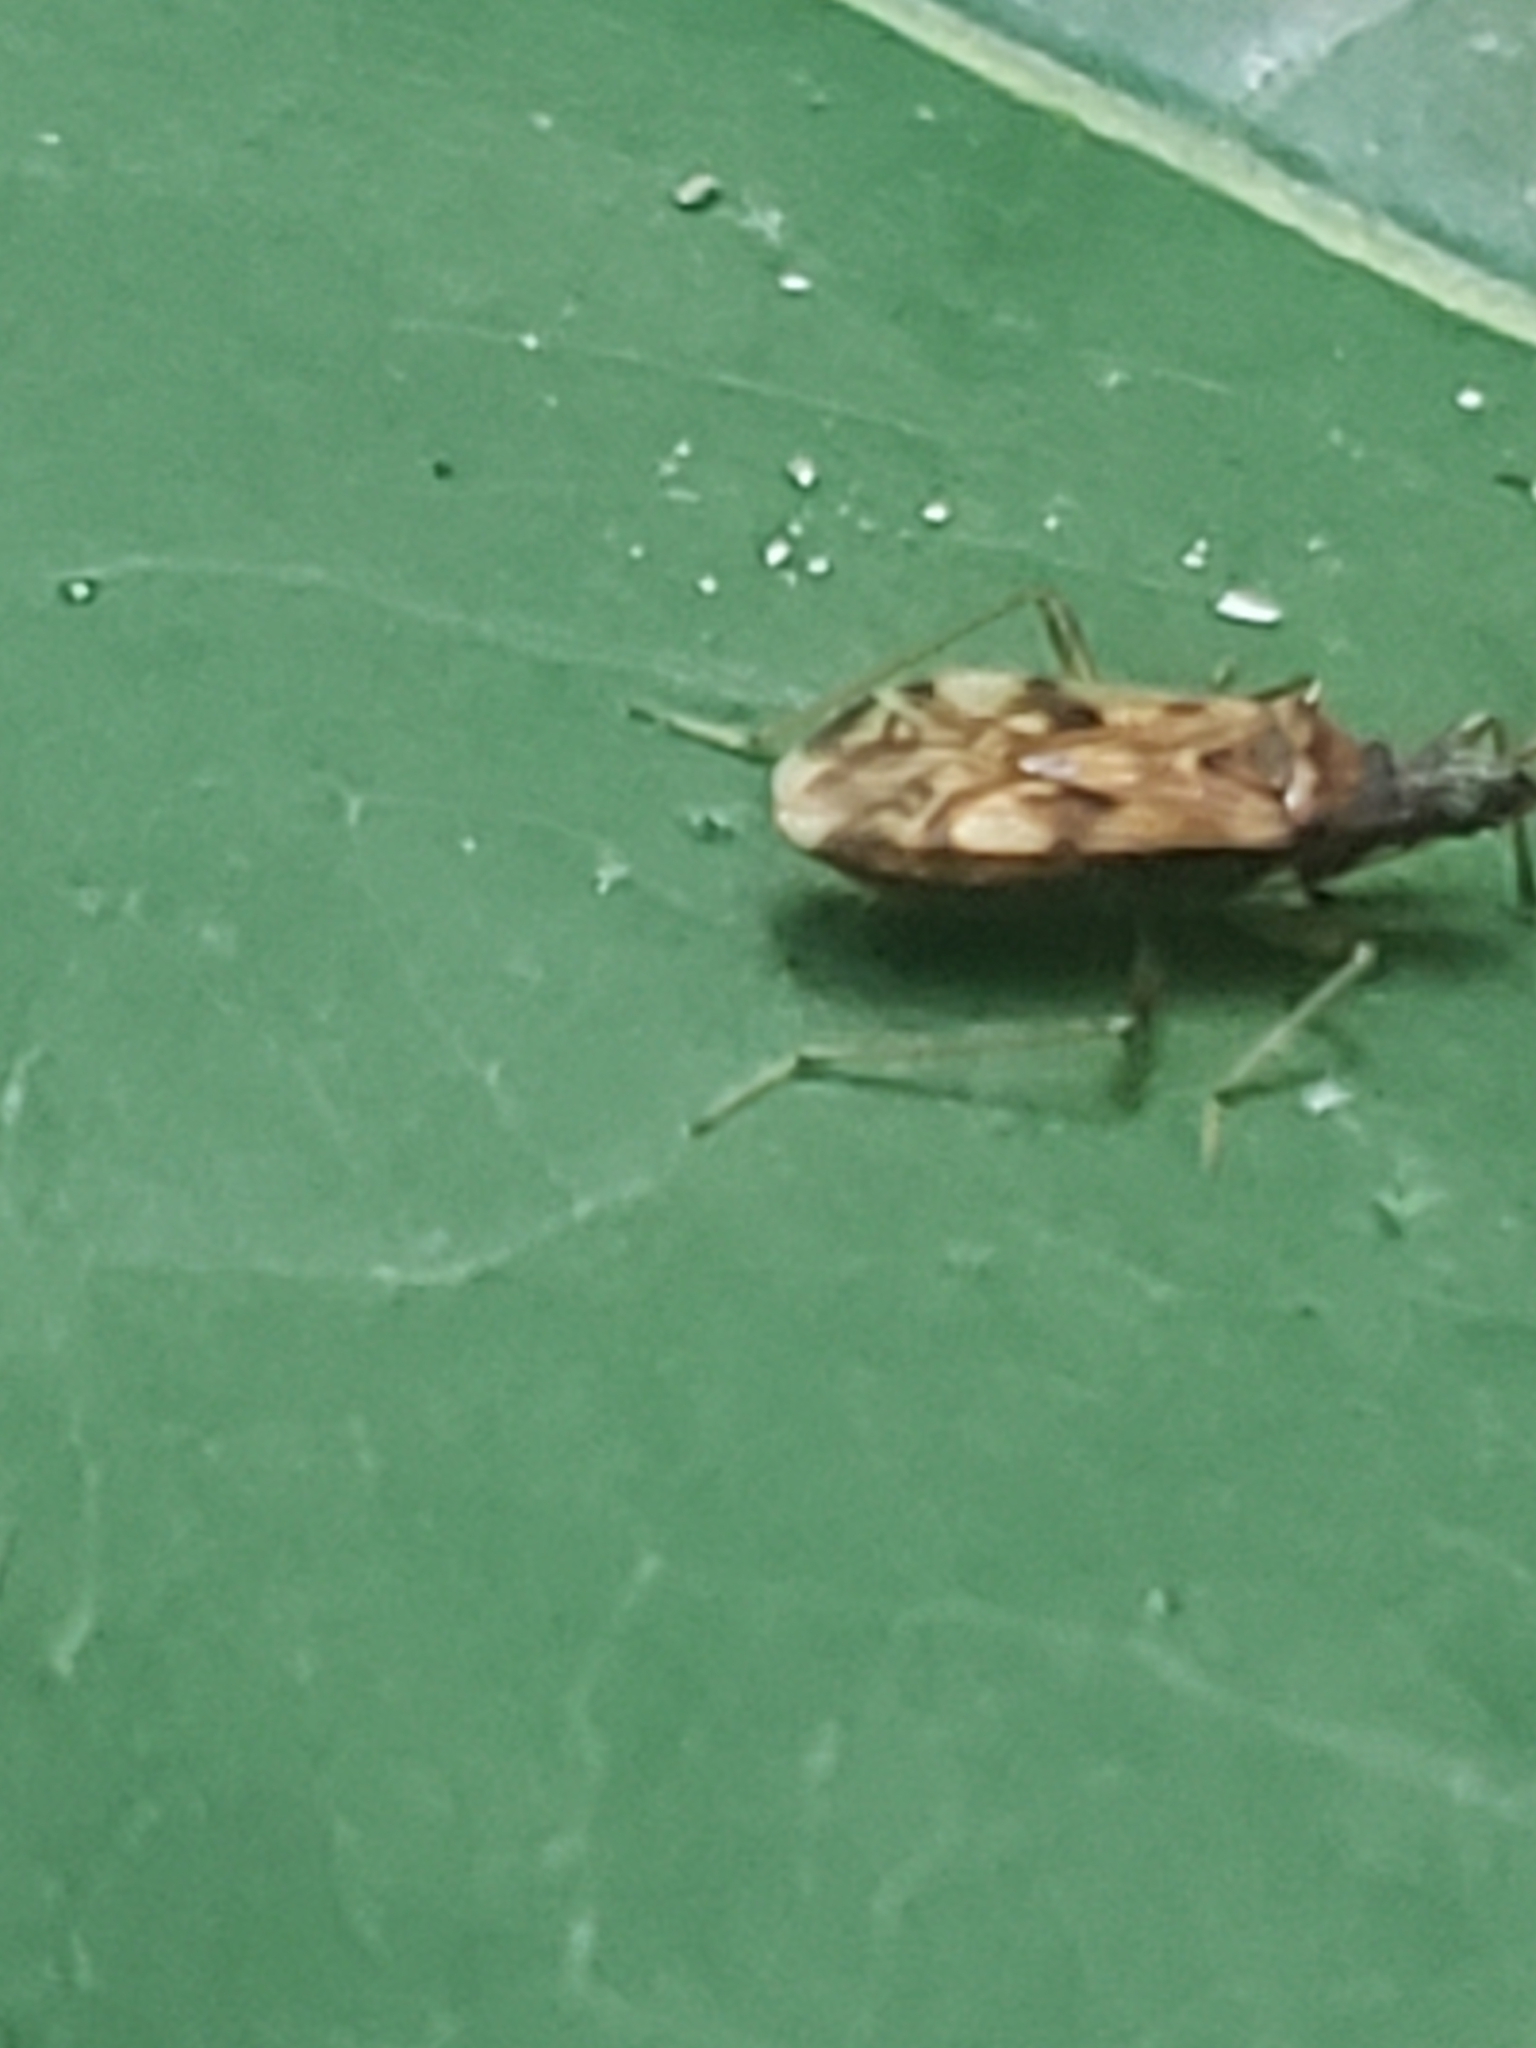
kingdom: Animalia
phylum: Arthropoda
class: Insecta
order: Hemiptera
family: Rhyparochromidae
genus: Ozophora
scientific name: Ozophora picturata
